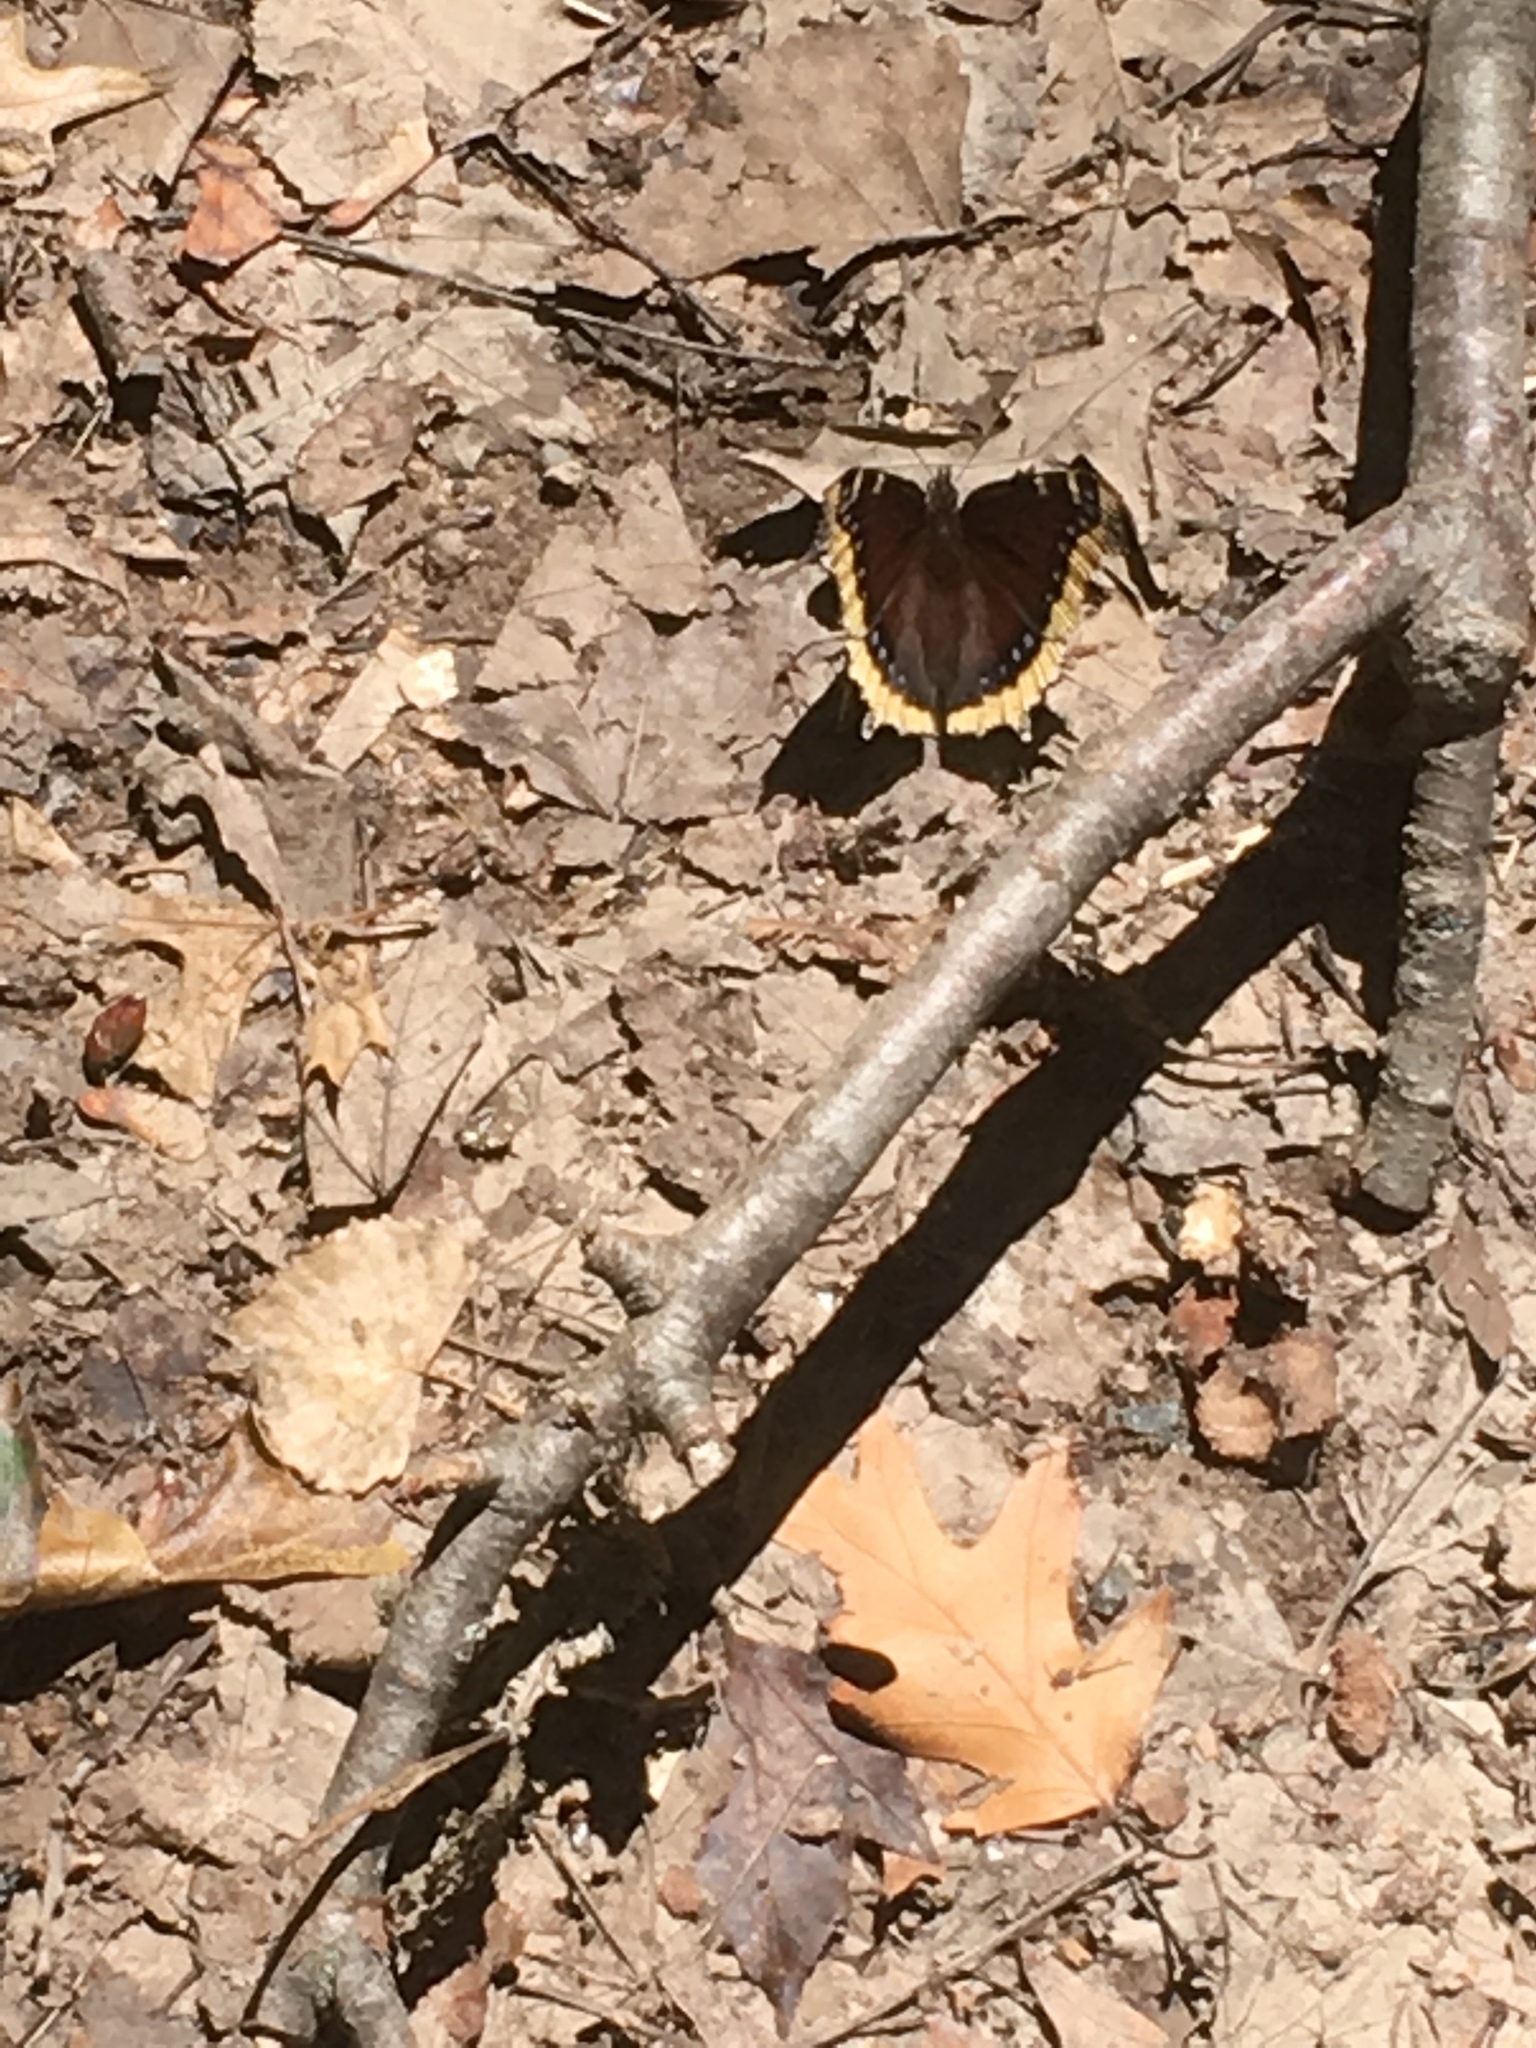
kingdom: Animalia
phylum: Arthropoda
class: Insecta
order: Lepidoptera
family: Nymphalidae
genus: Nymphalis
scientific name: Nymphalis antiopa
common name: Camberwell beauty
